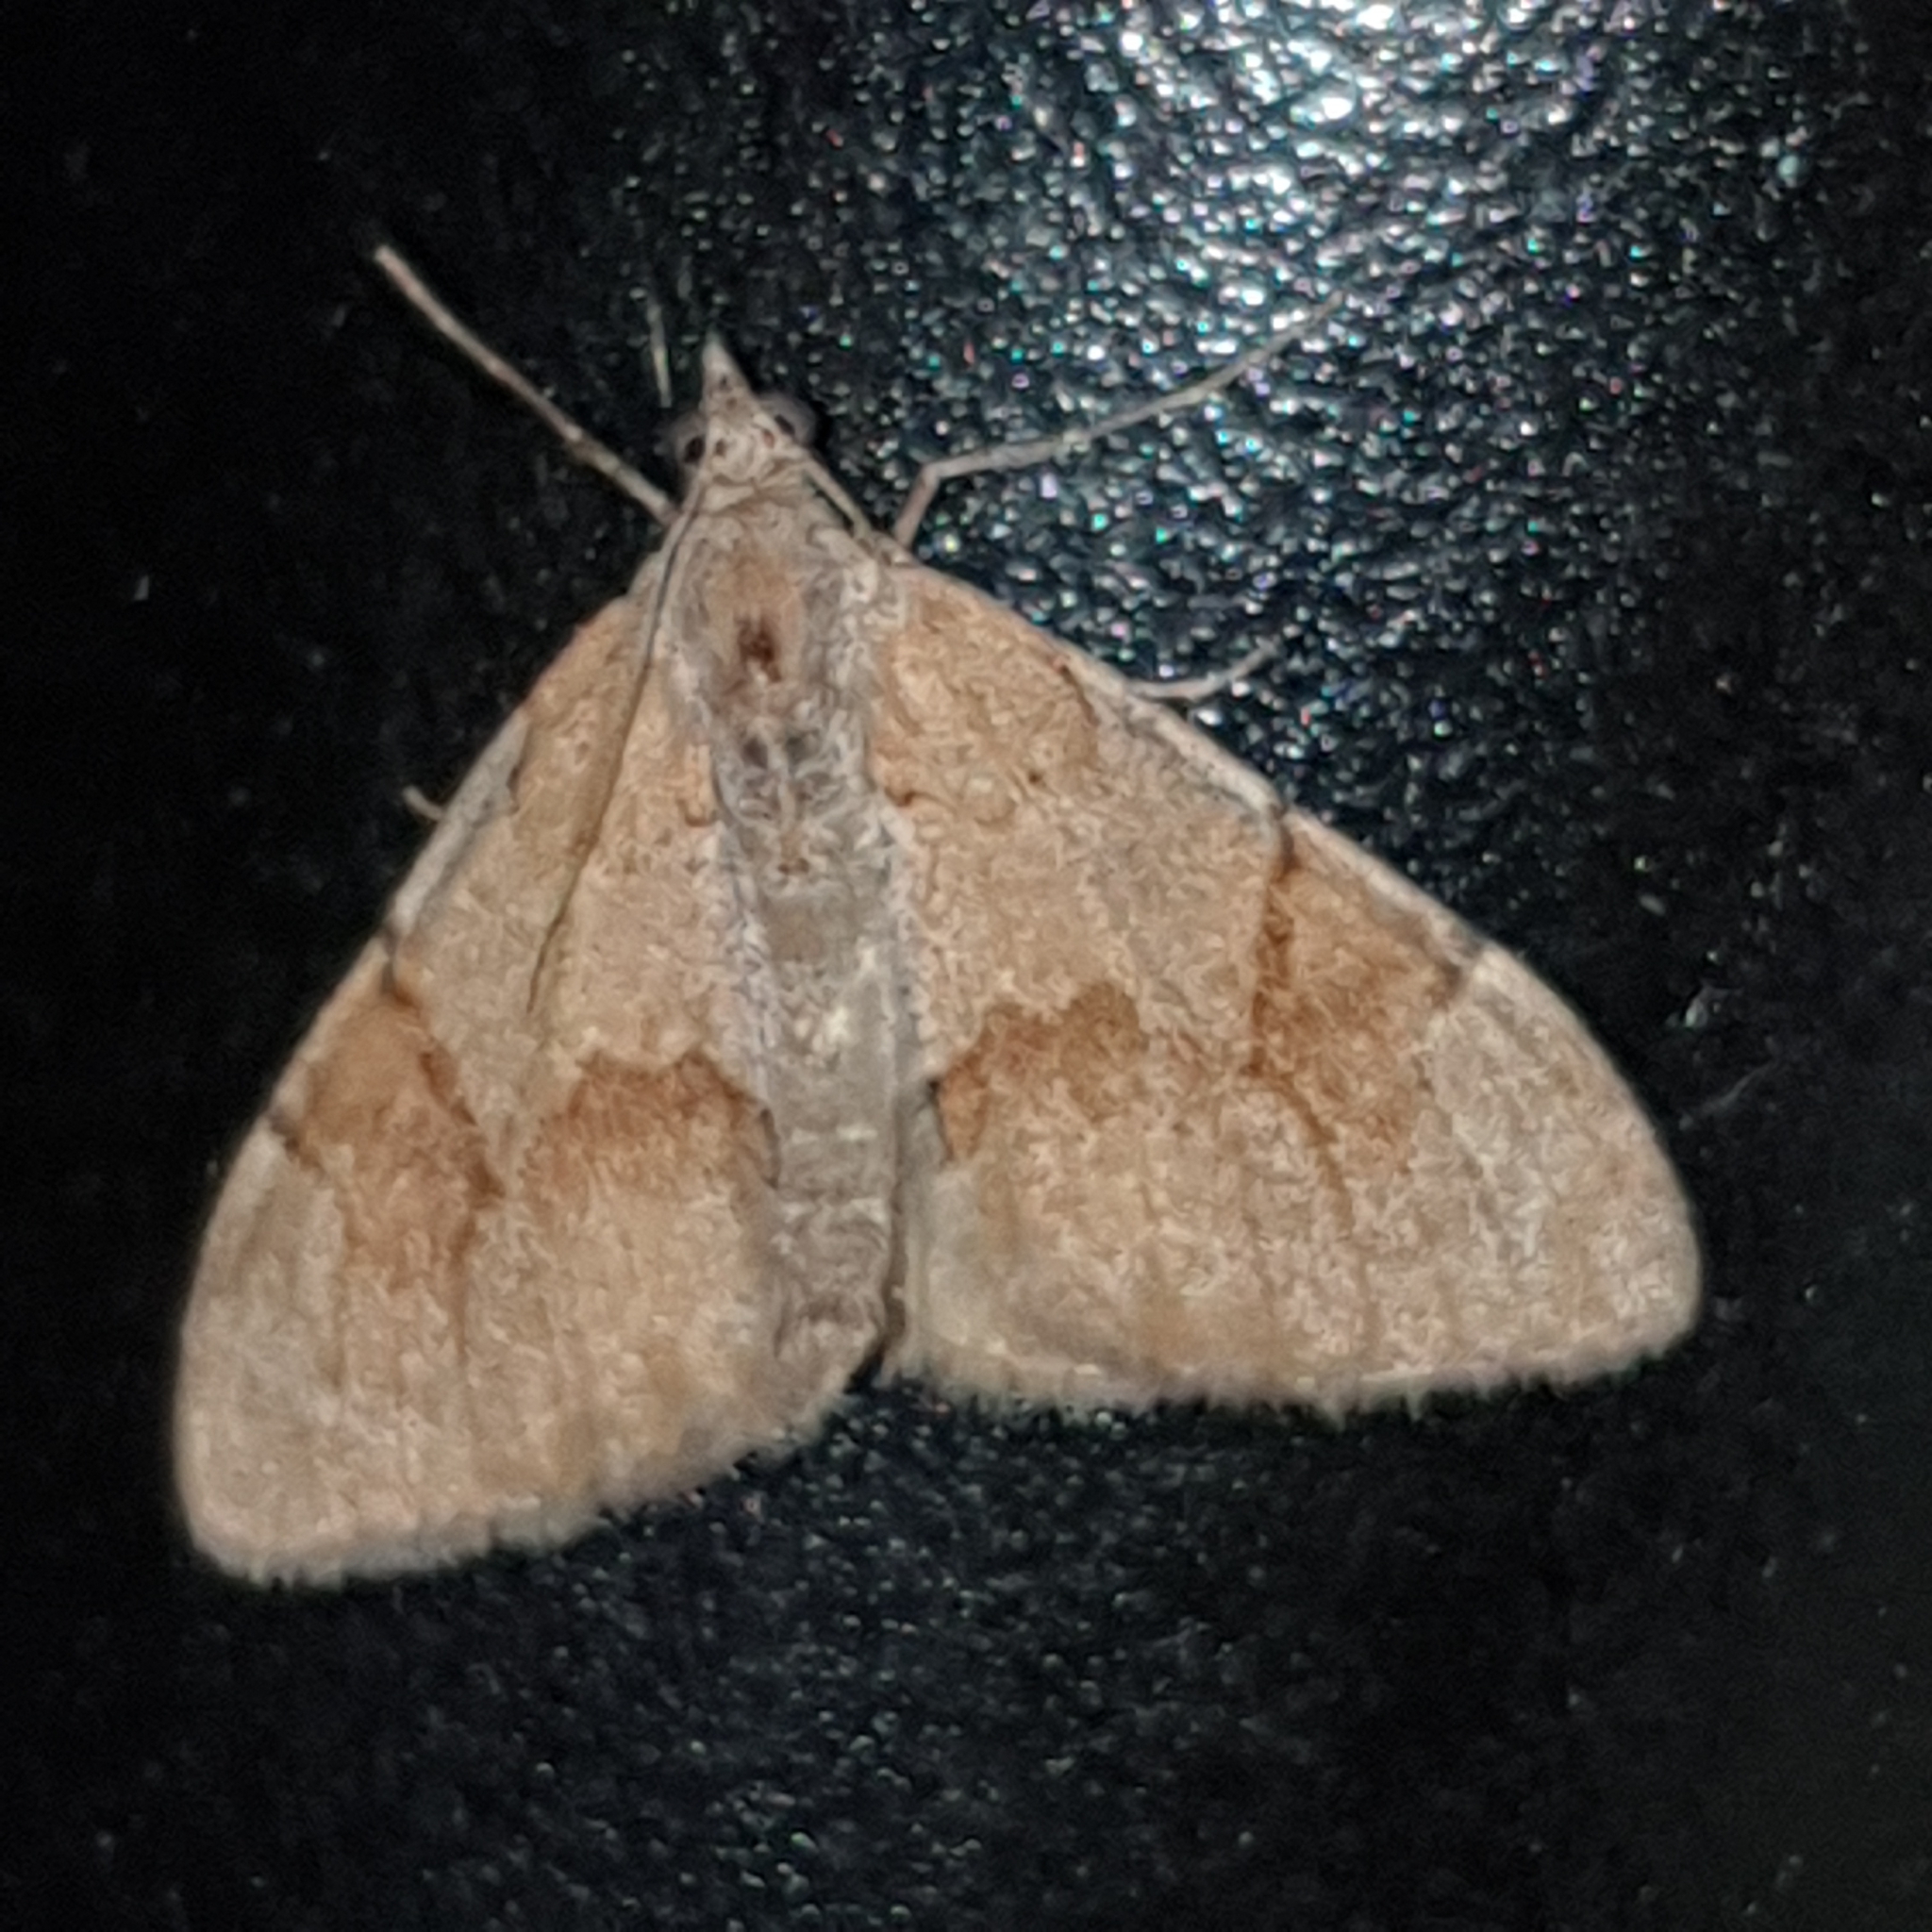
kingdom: Animalia
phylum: Arthropoda
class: Insecta
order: Lepidoptera
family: Geometridae
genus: Pennithera
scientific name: Pennithera firmata
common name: Pine carpet
